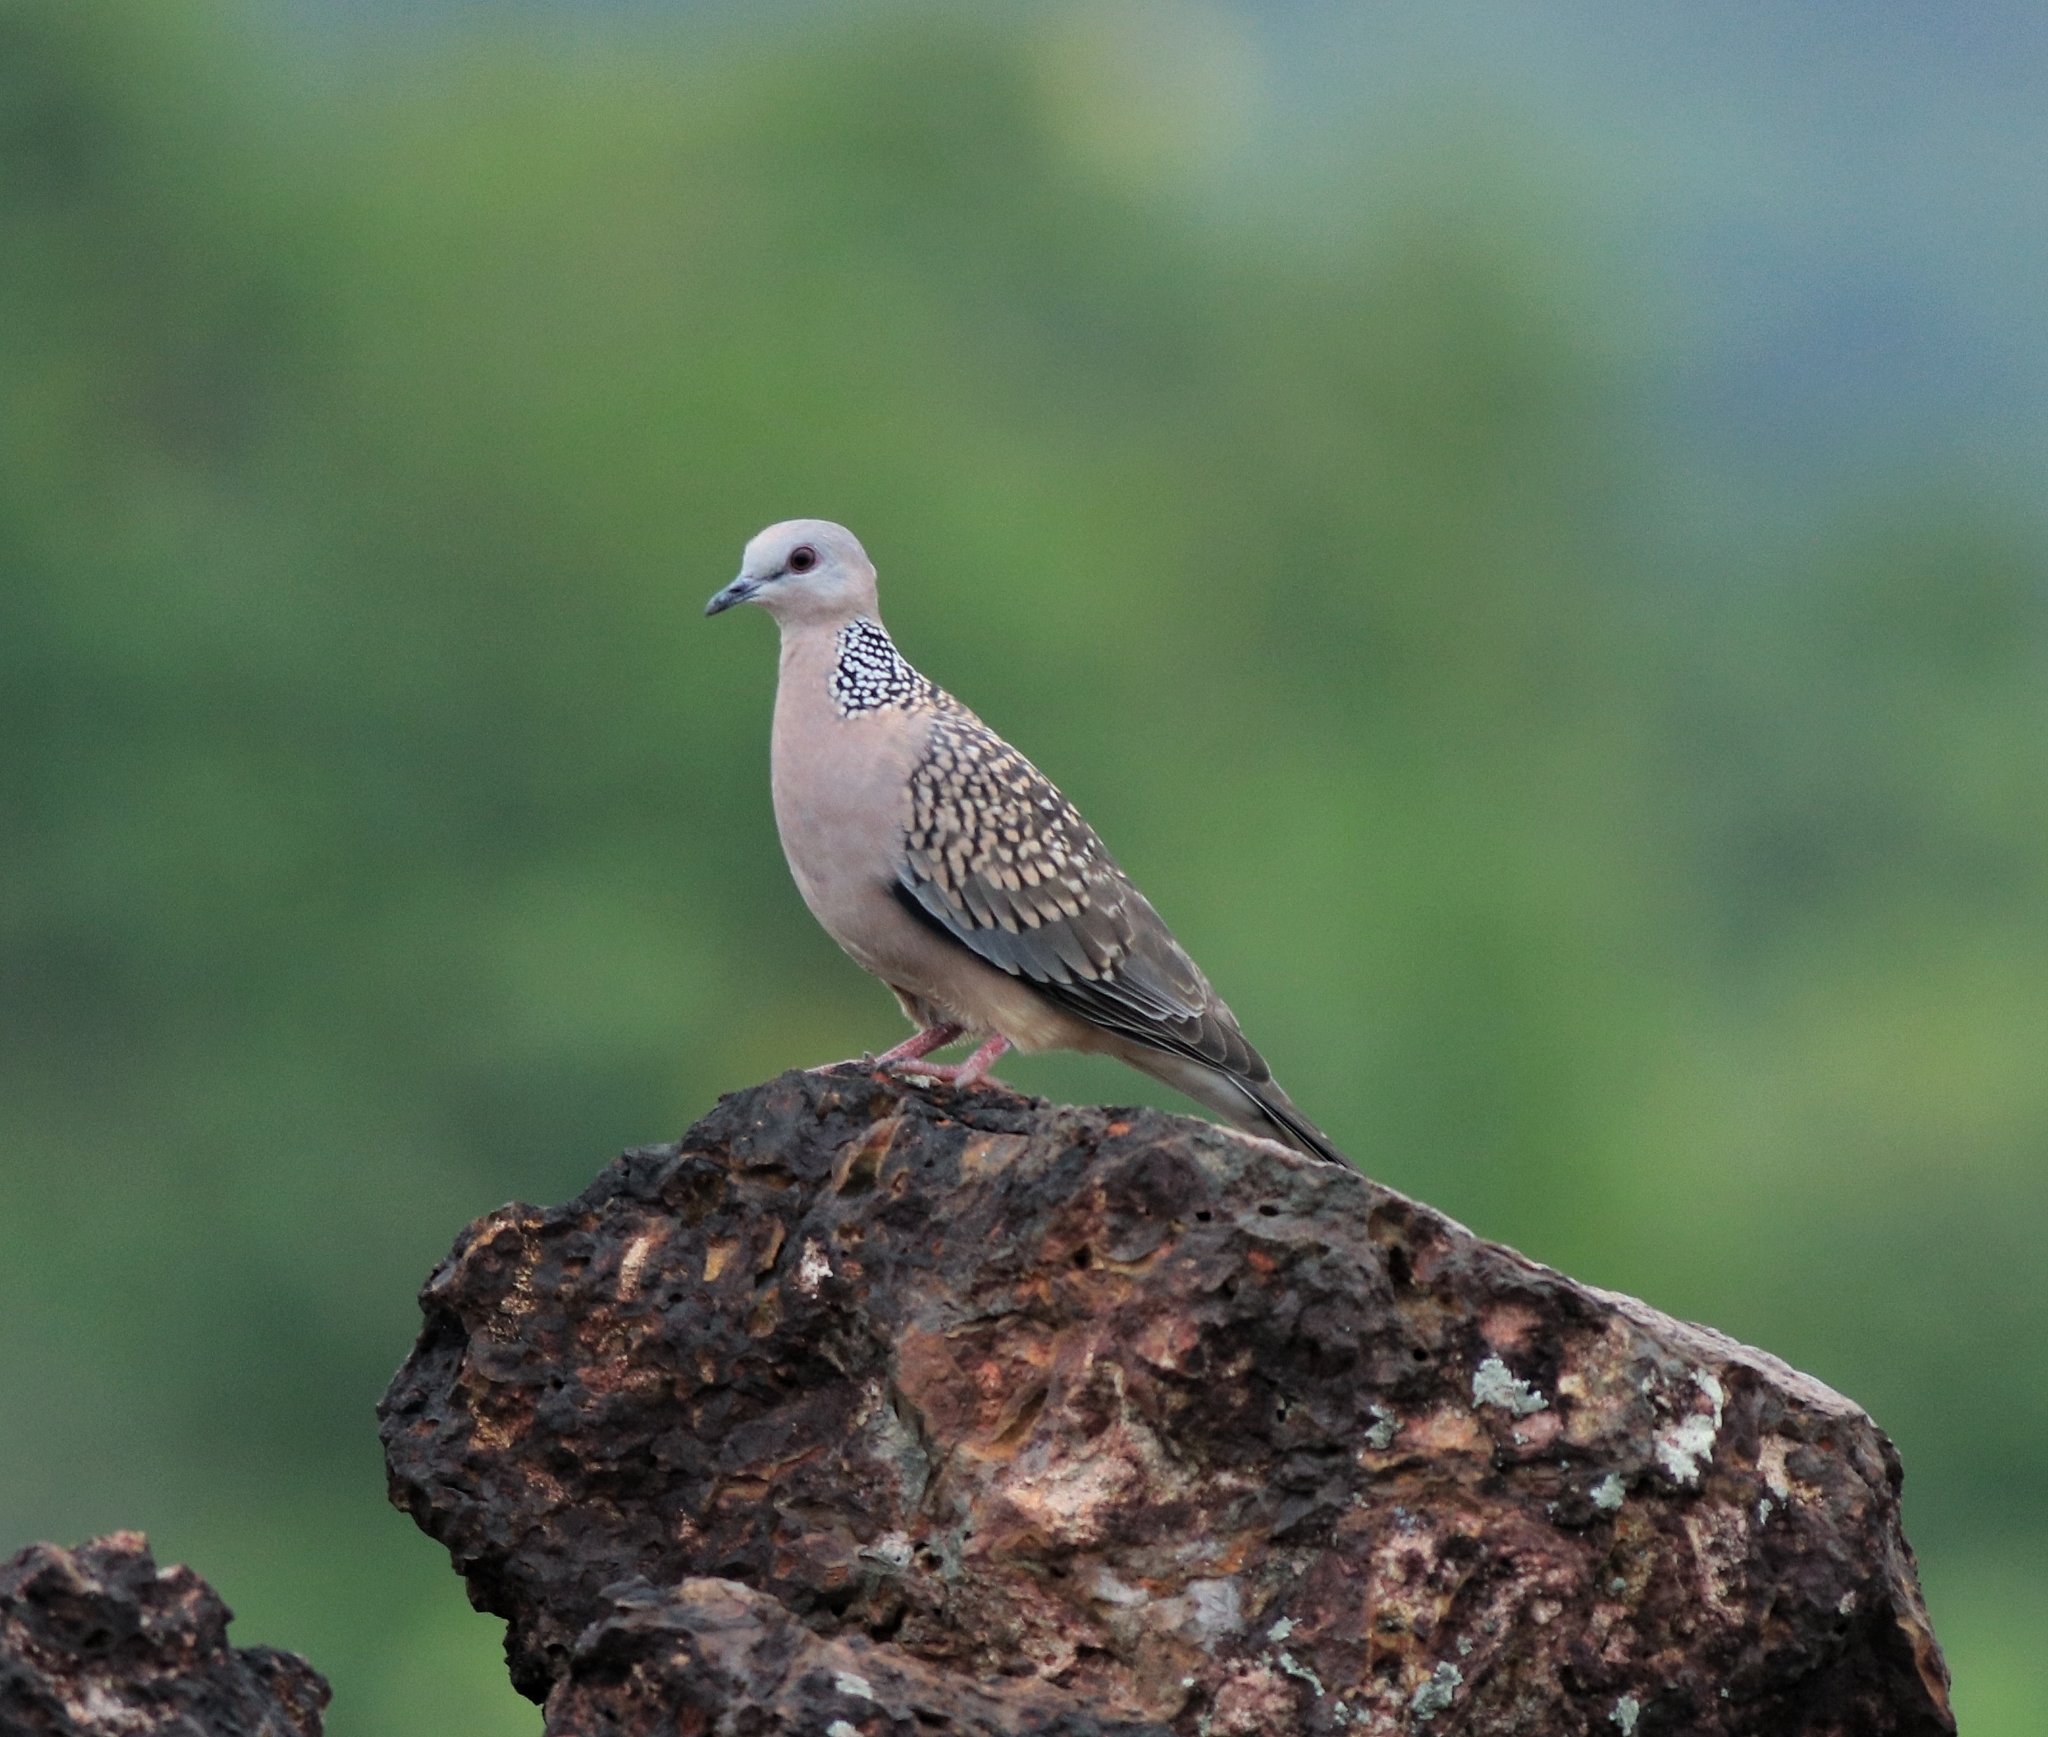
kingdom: Animalia
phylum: Chordata
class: Aves
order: Columbiformes
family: Columbidae
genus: Spilopelia
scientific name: Spilopelia chinensis
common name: Spotted dove
